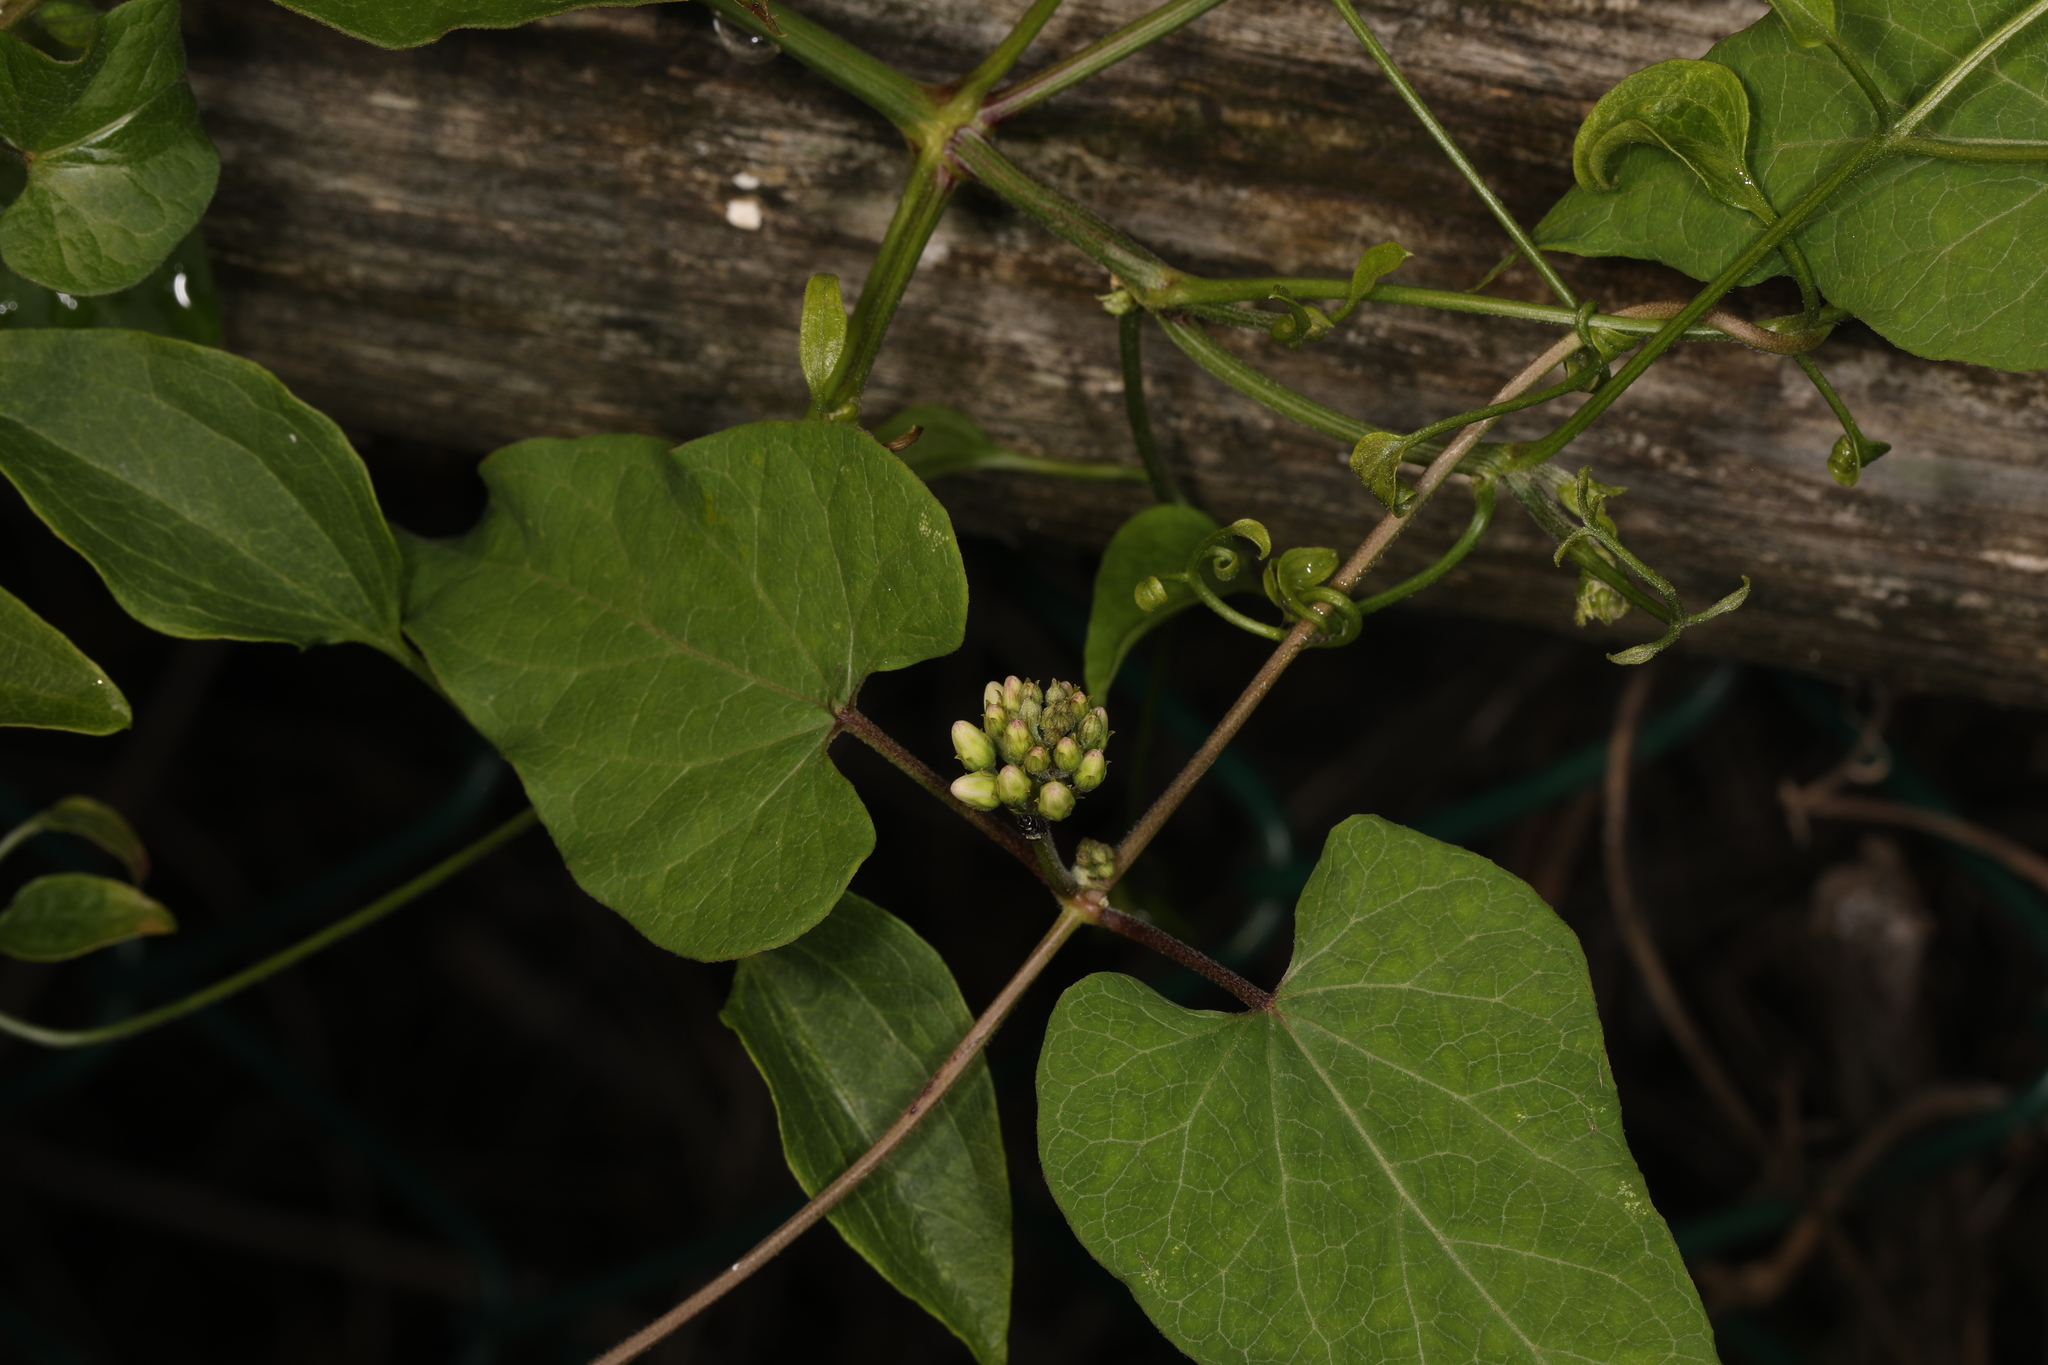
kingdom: Plantae
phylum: Tracheophyta
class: Magnoliopsida
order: Gentianales
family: Apocynaceae
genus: Cynanchum
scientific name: Cynanchum laeve
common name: Sandvine
